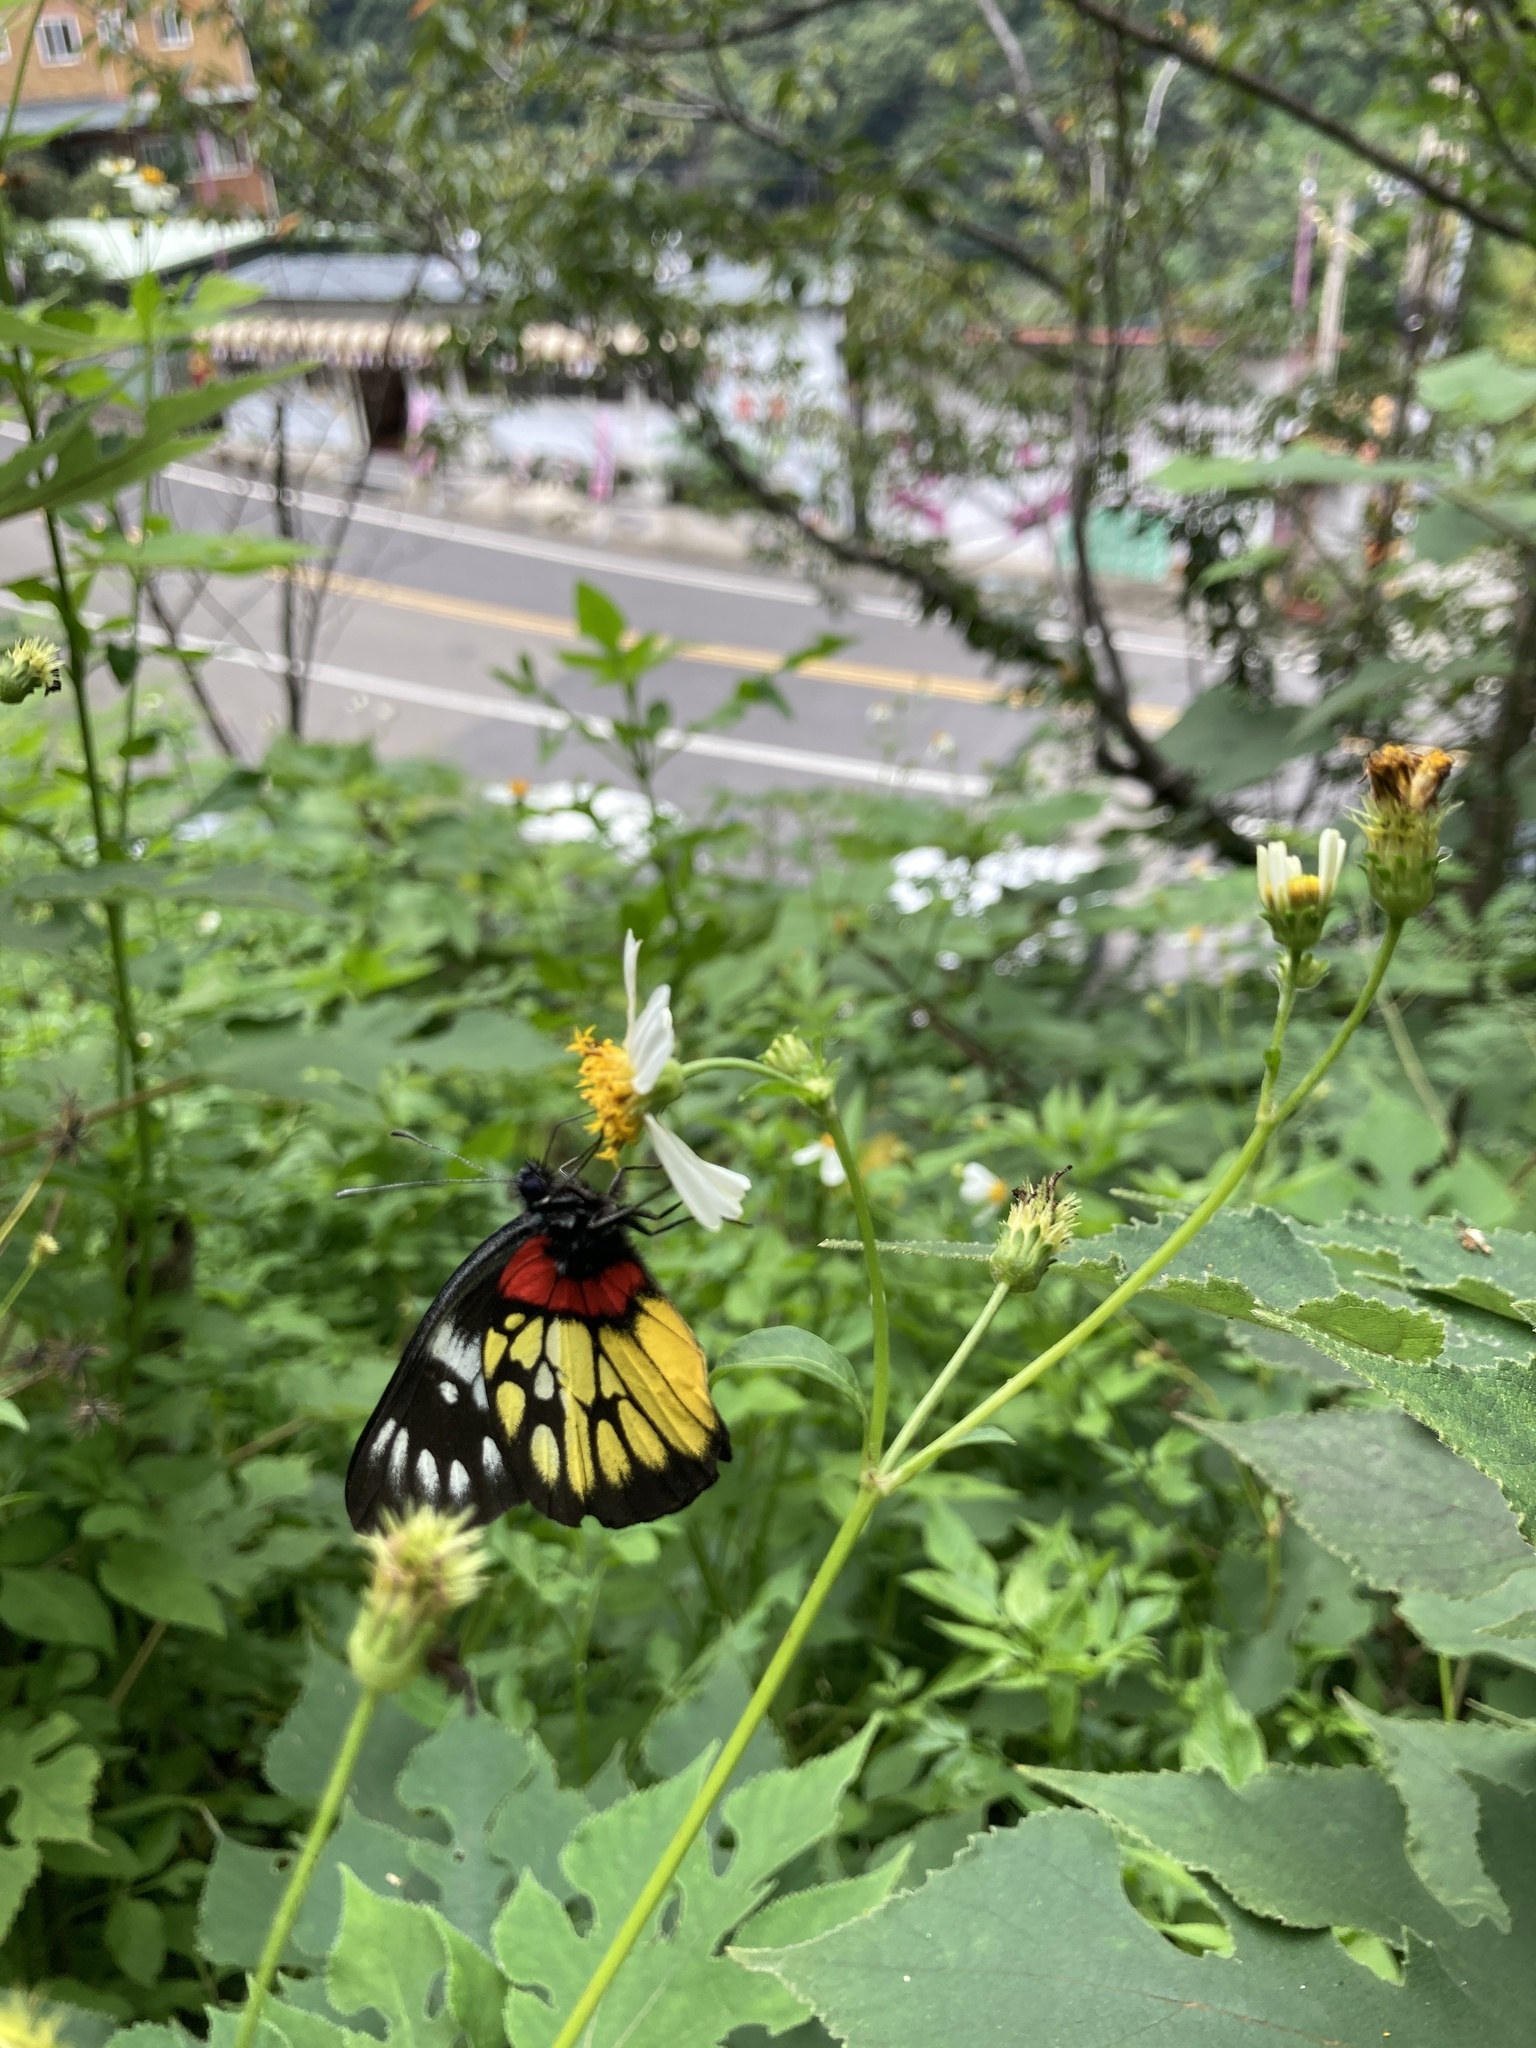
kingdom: Animalia
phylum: Arthropoda
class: Insecta
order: Lepidoptera
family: Pieridae
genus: Delias
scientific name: Delias pasithoe
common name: Red-base jezebel
